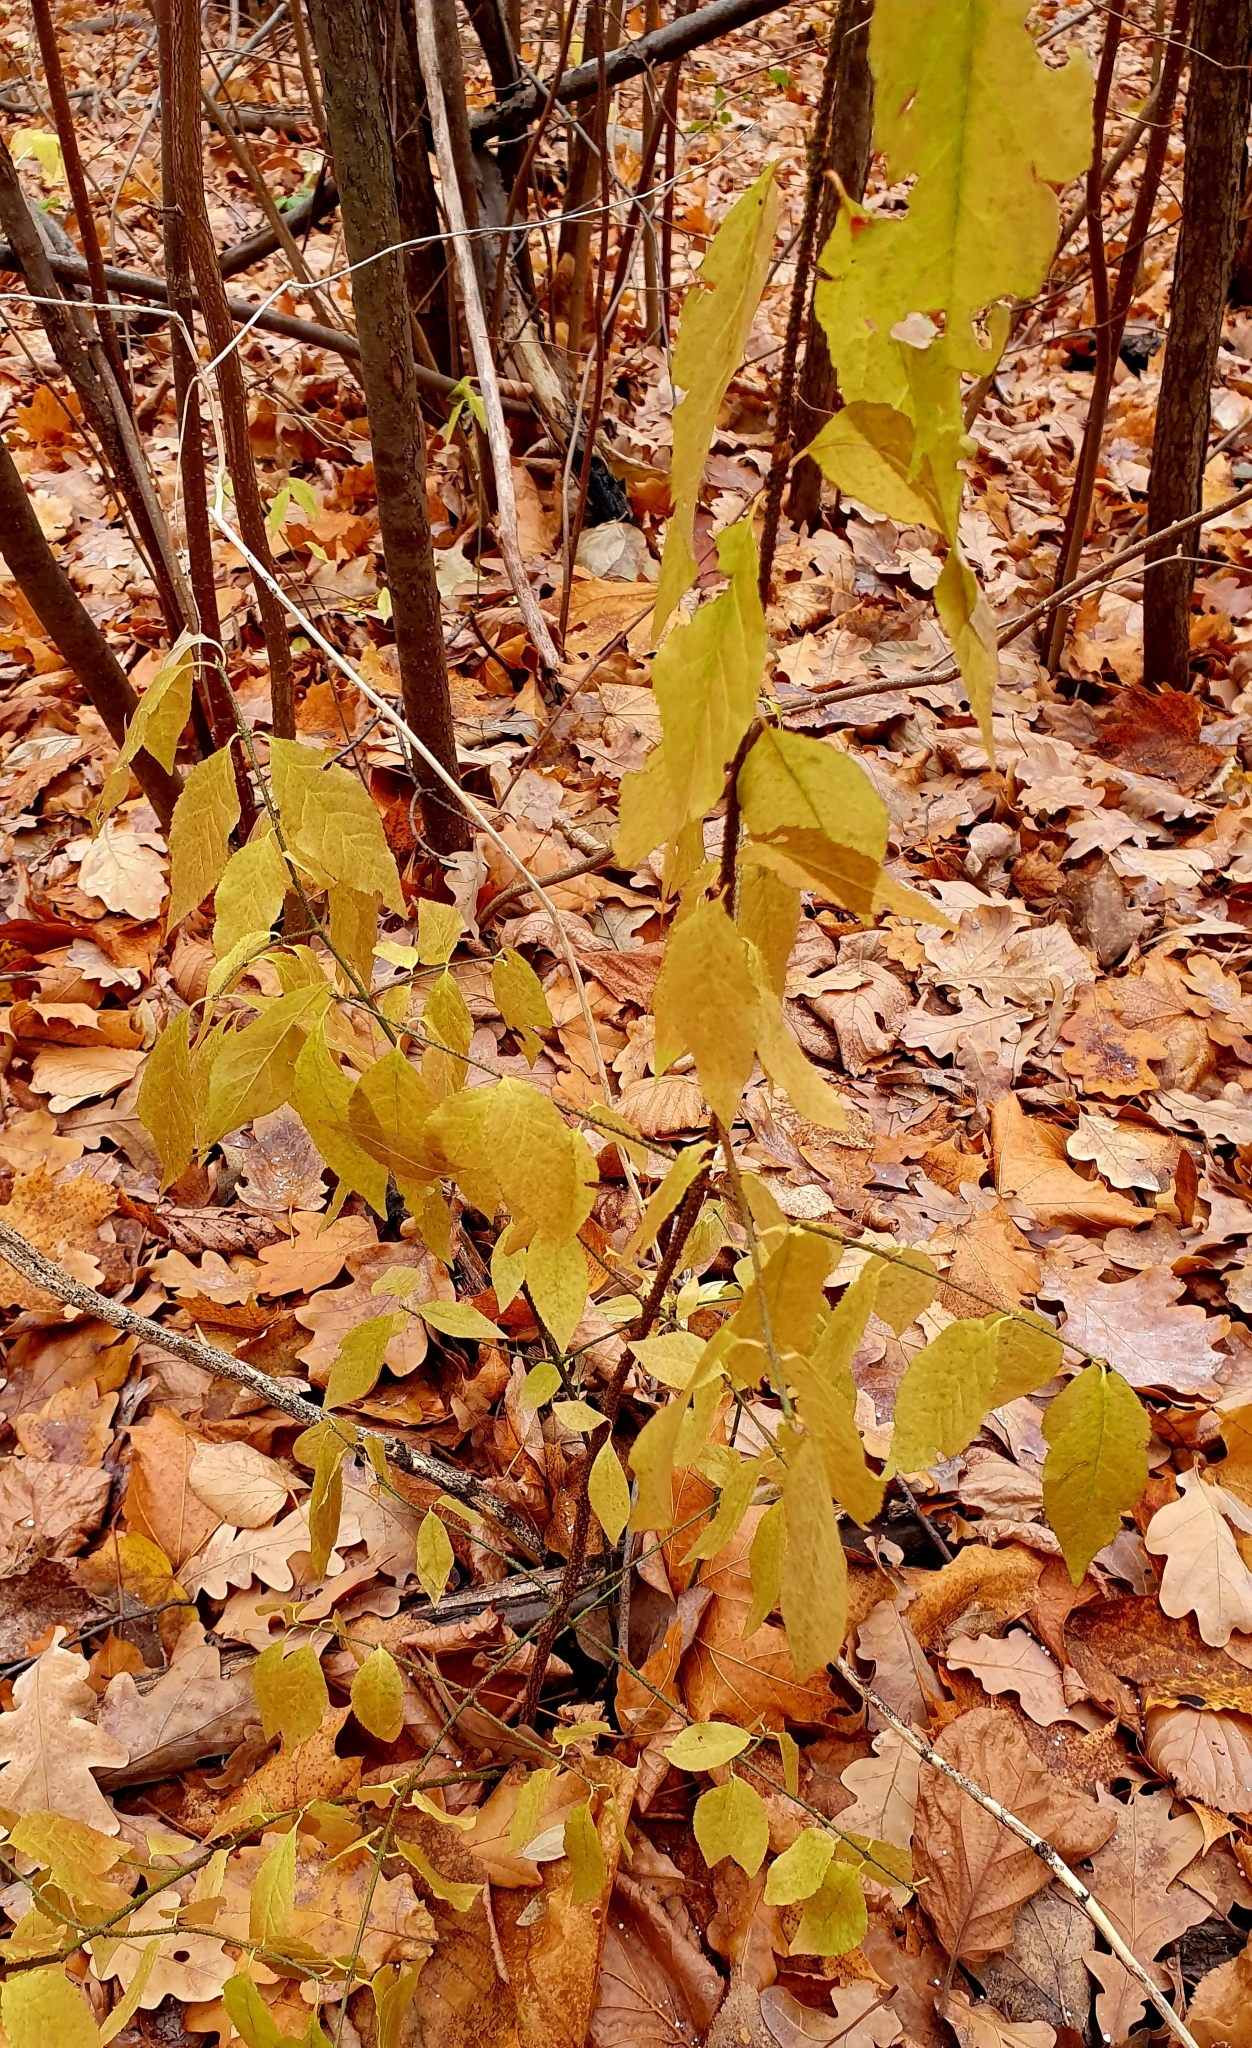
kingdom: Plantae
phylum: Tracheophyta
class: Magnoliopsida
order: Celastrales
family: Celastraceae
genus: Euonymus
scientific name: Euonymus verrucosus
